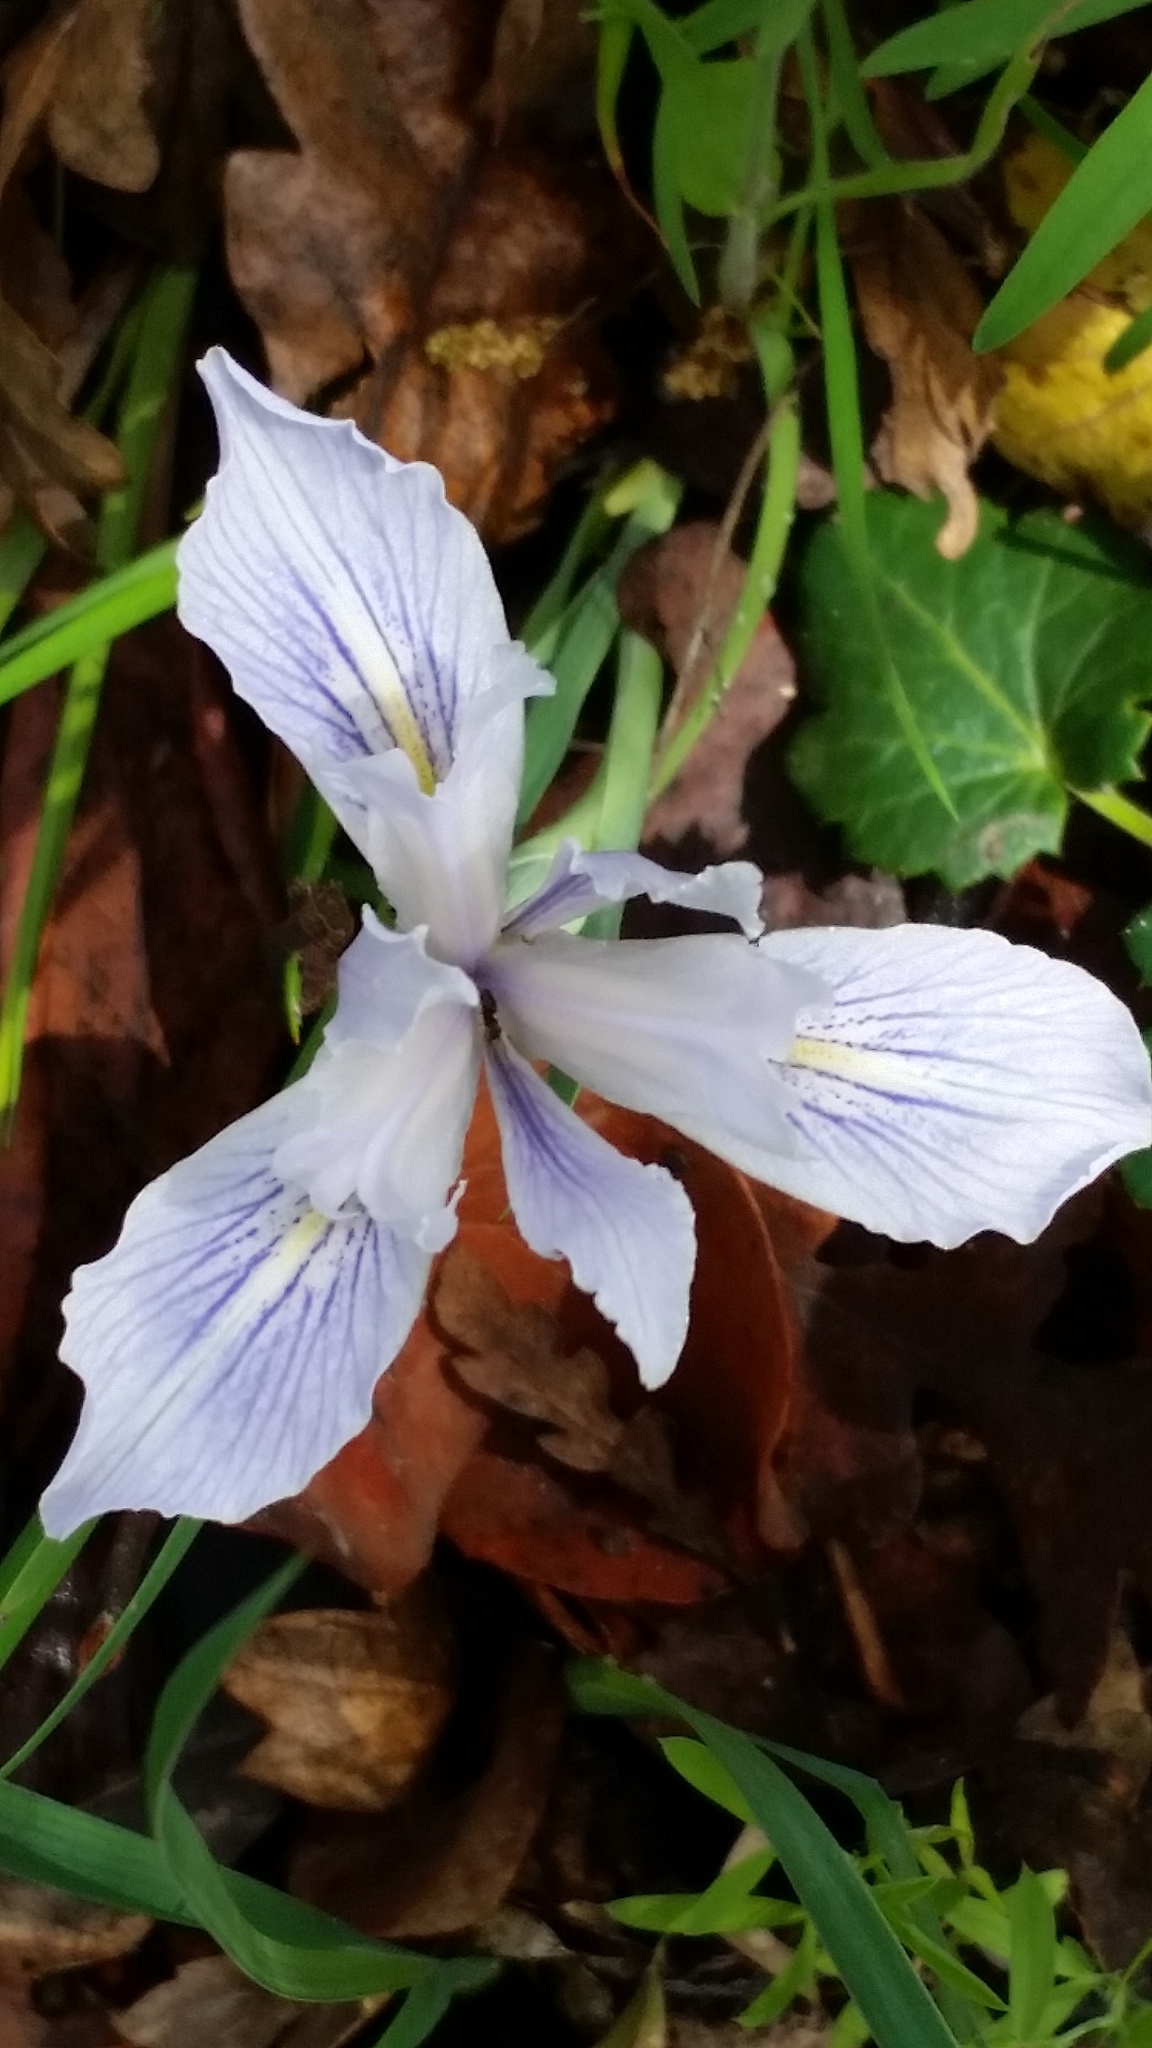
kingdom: Plantae
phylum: Tracheophyta
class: Liliopsida
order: Asparagales
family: Iridaceae
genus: Iris
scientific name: Iris macrosiphon
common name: Ground iris
